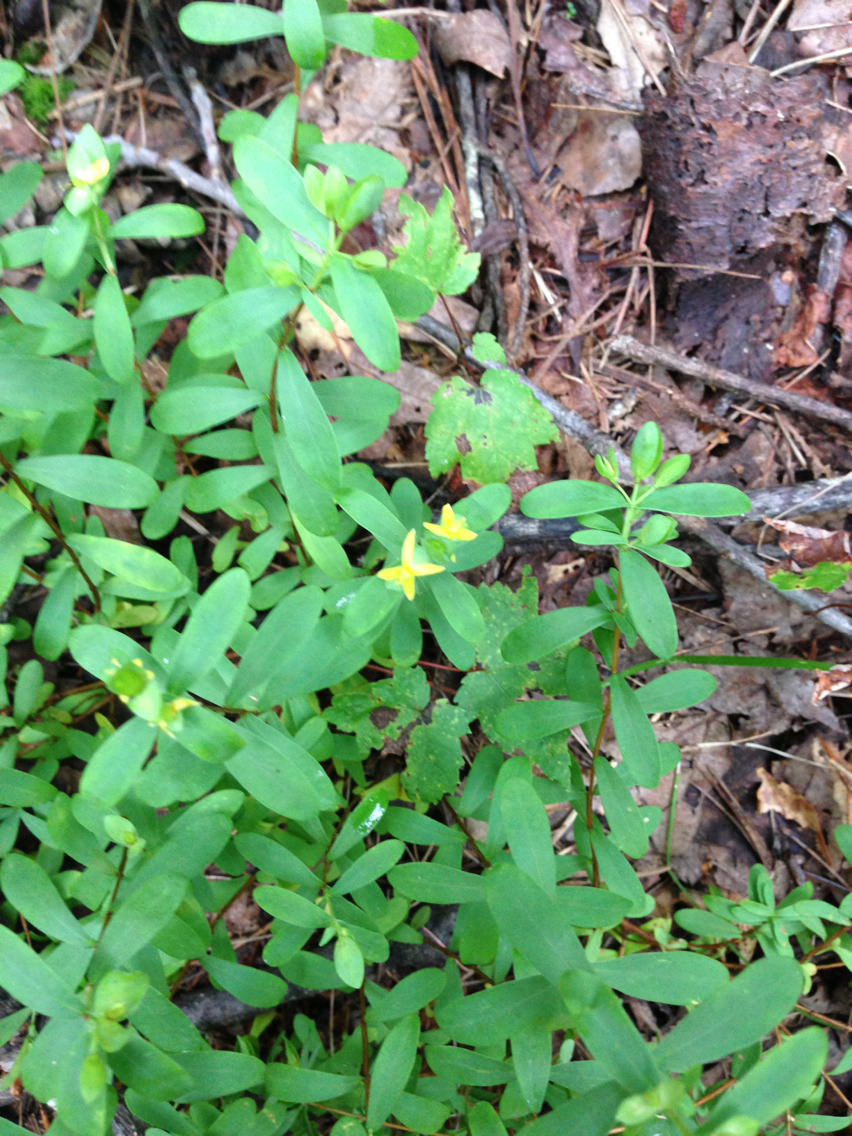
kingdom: Plantae
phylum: Tracheophyta
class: Magnoliopsida
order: Malpighiales
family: Hypericaceae
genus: Hypericum
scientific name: Hypericum hypericoides
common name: St. andrew's cross
